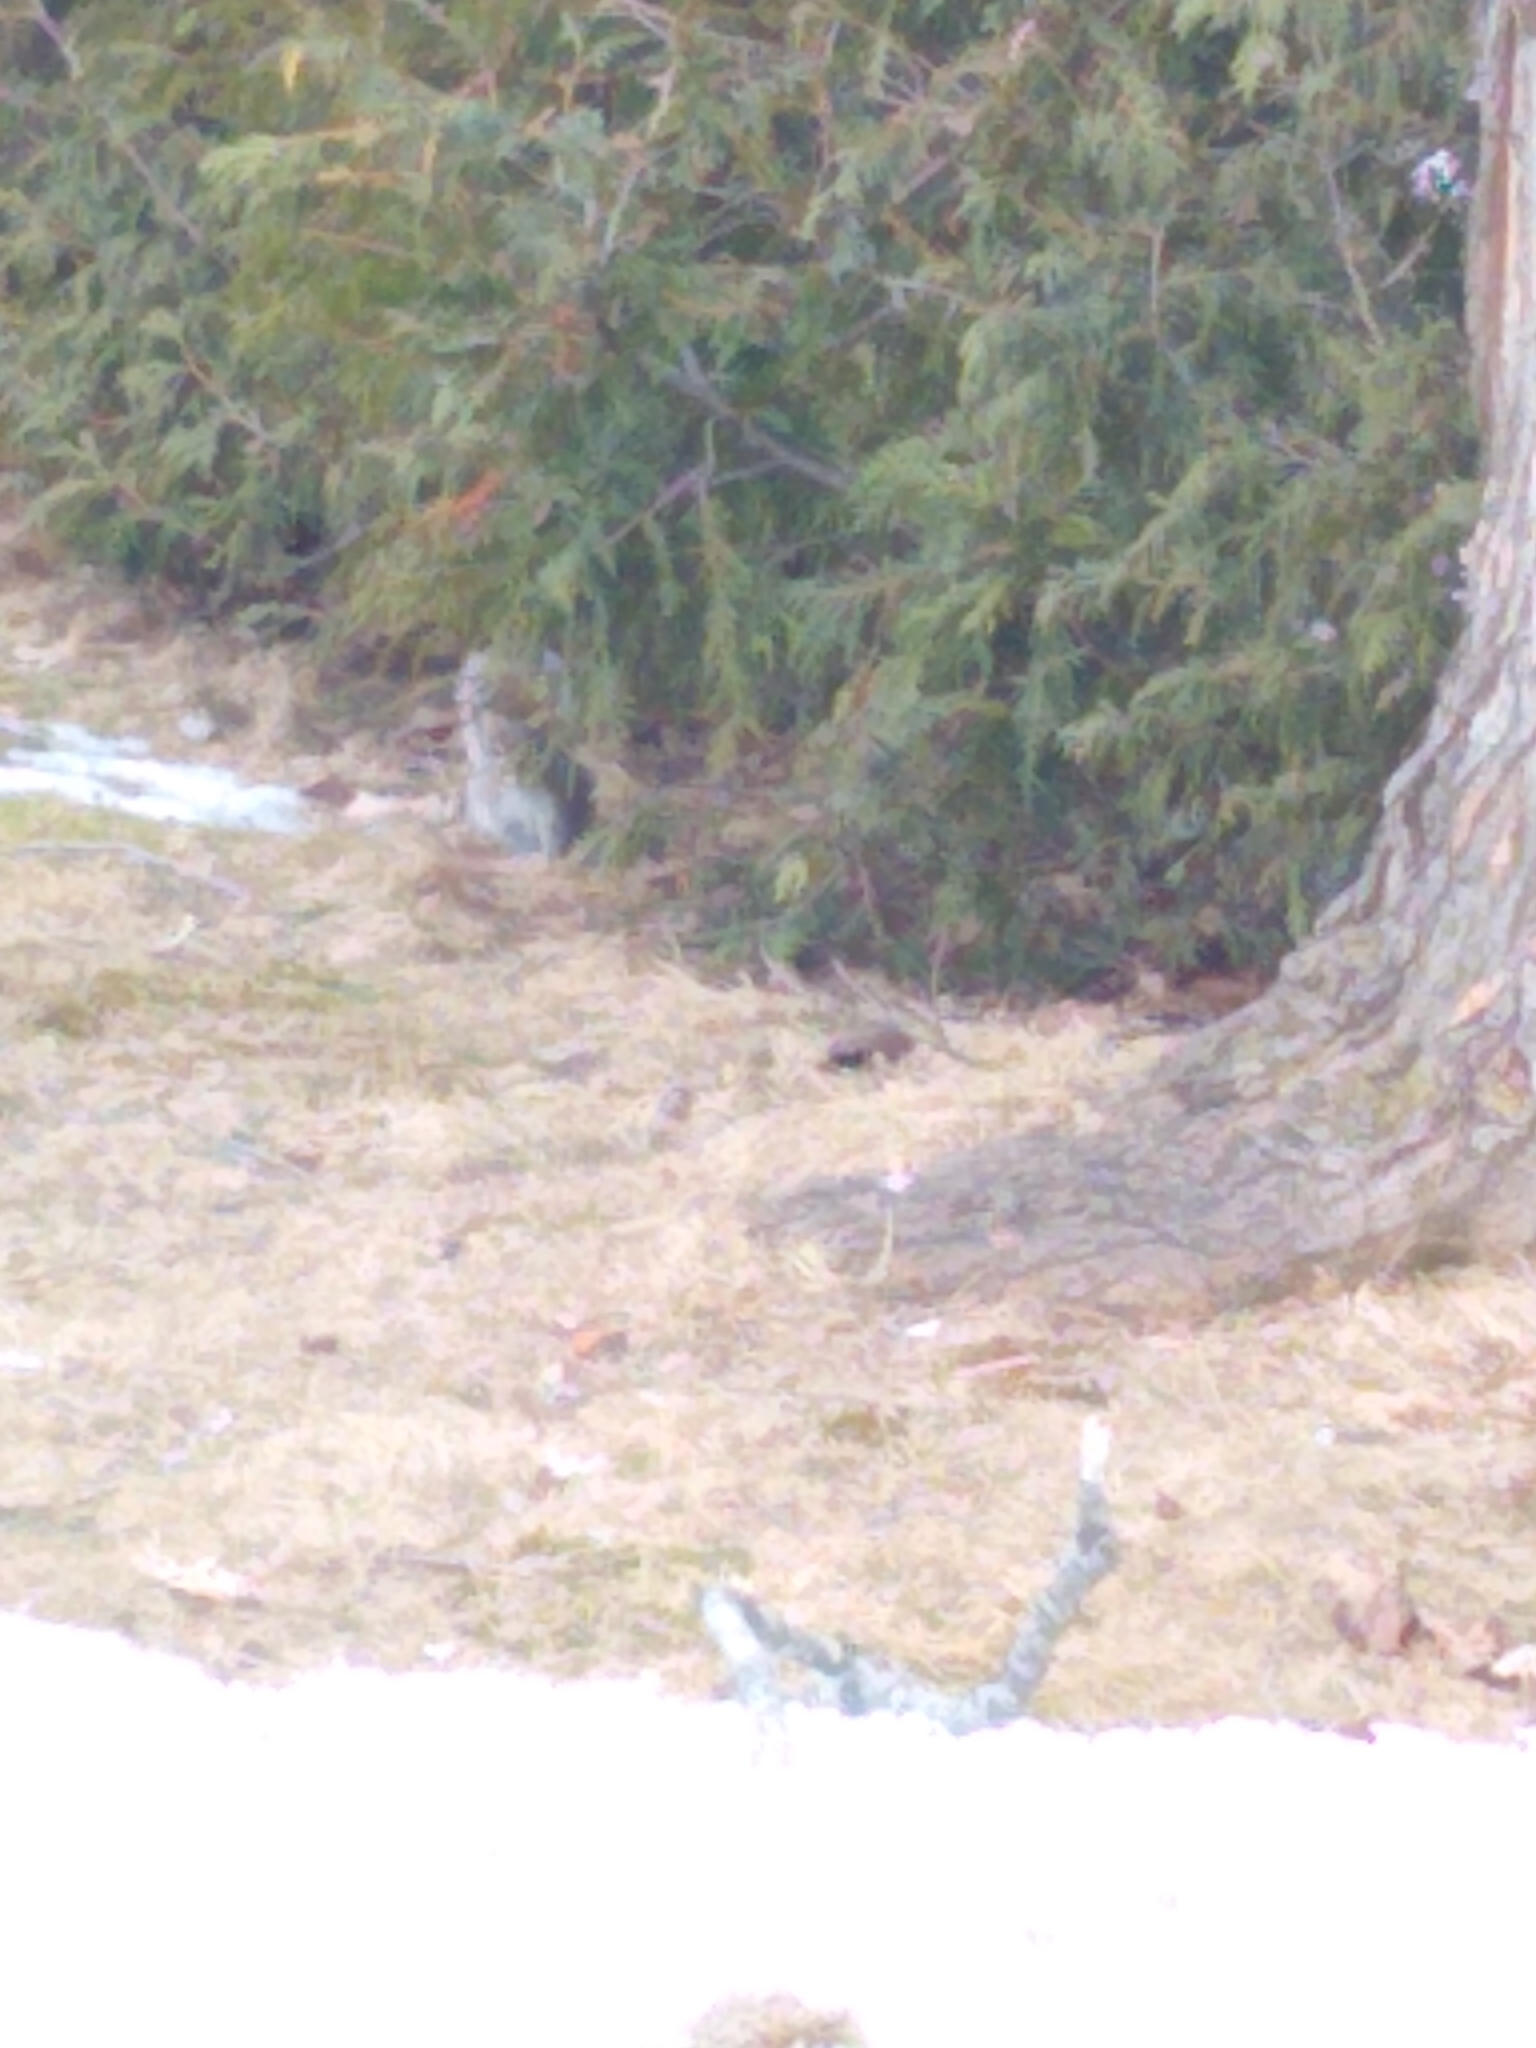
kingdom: Animalia
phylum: Chordata
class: Mammalia
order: Rodentia
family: Sciuridae
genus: Sciurus
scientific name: Sciurus carolinensis
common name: Eastern gray squirrel
